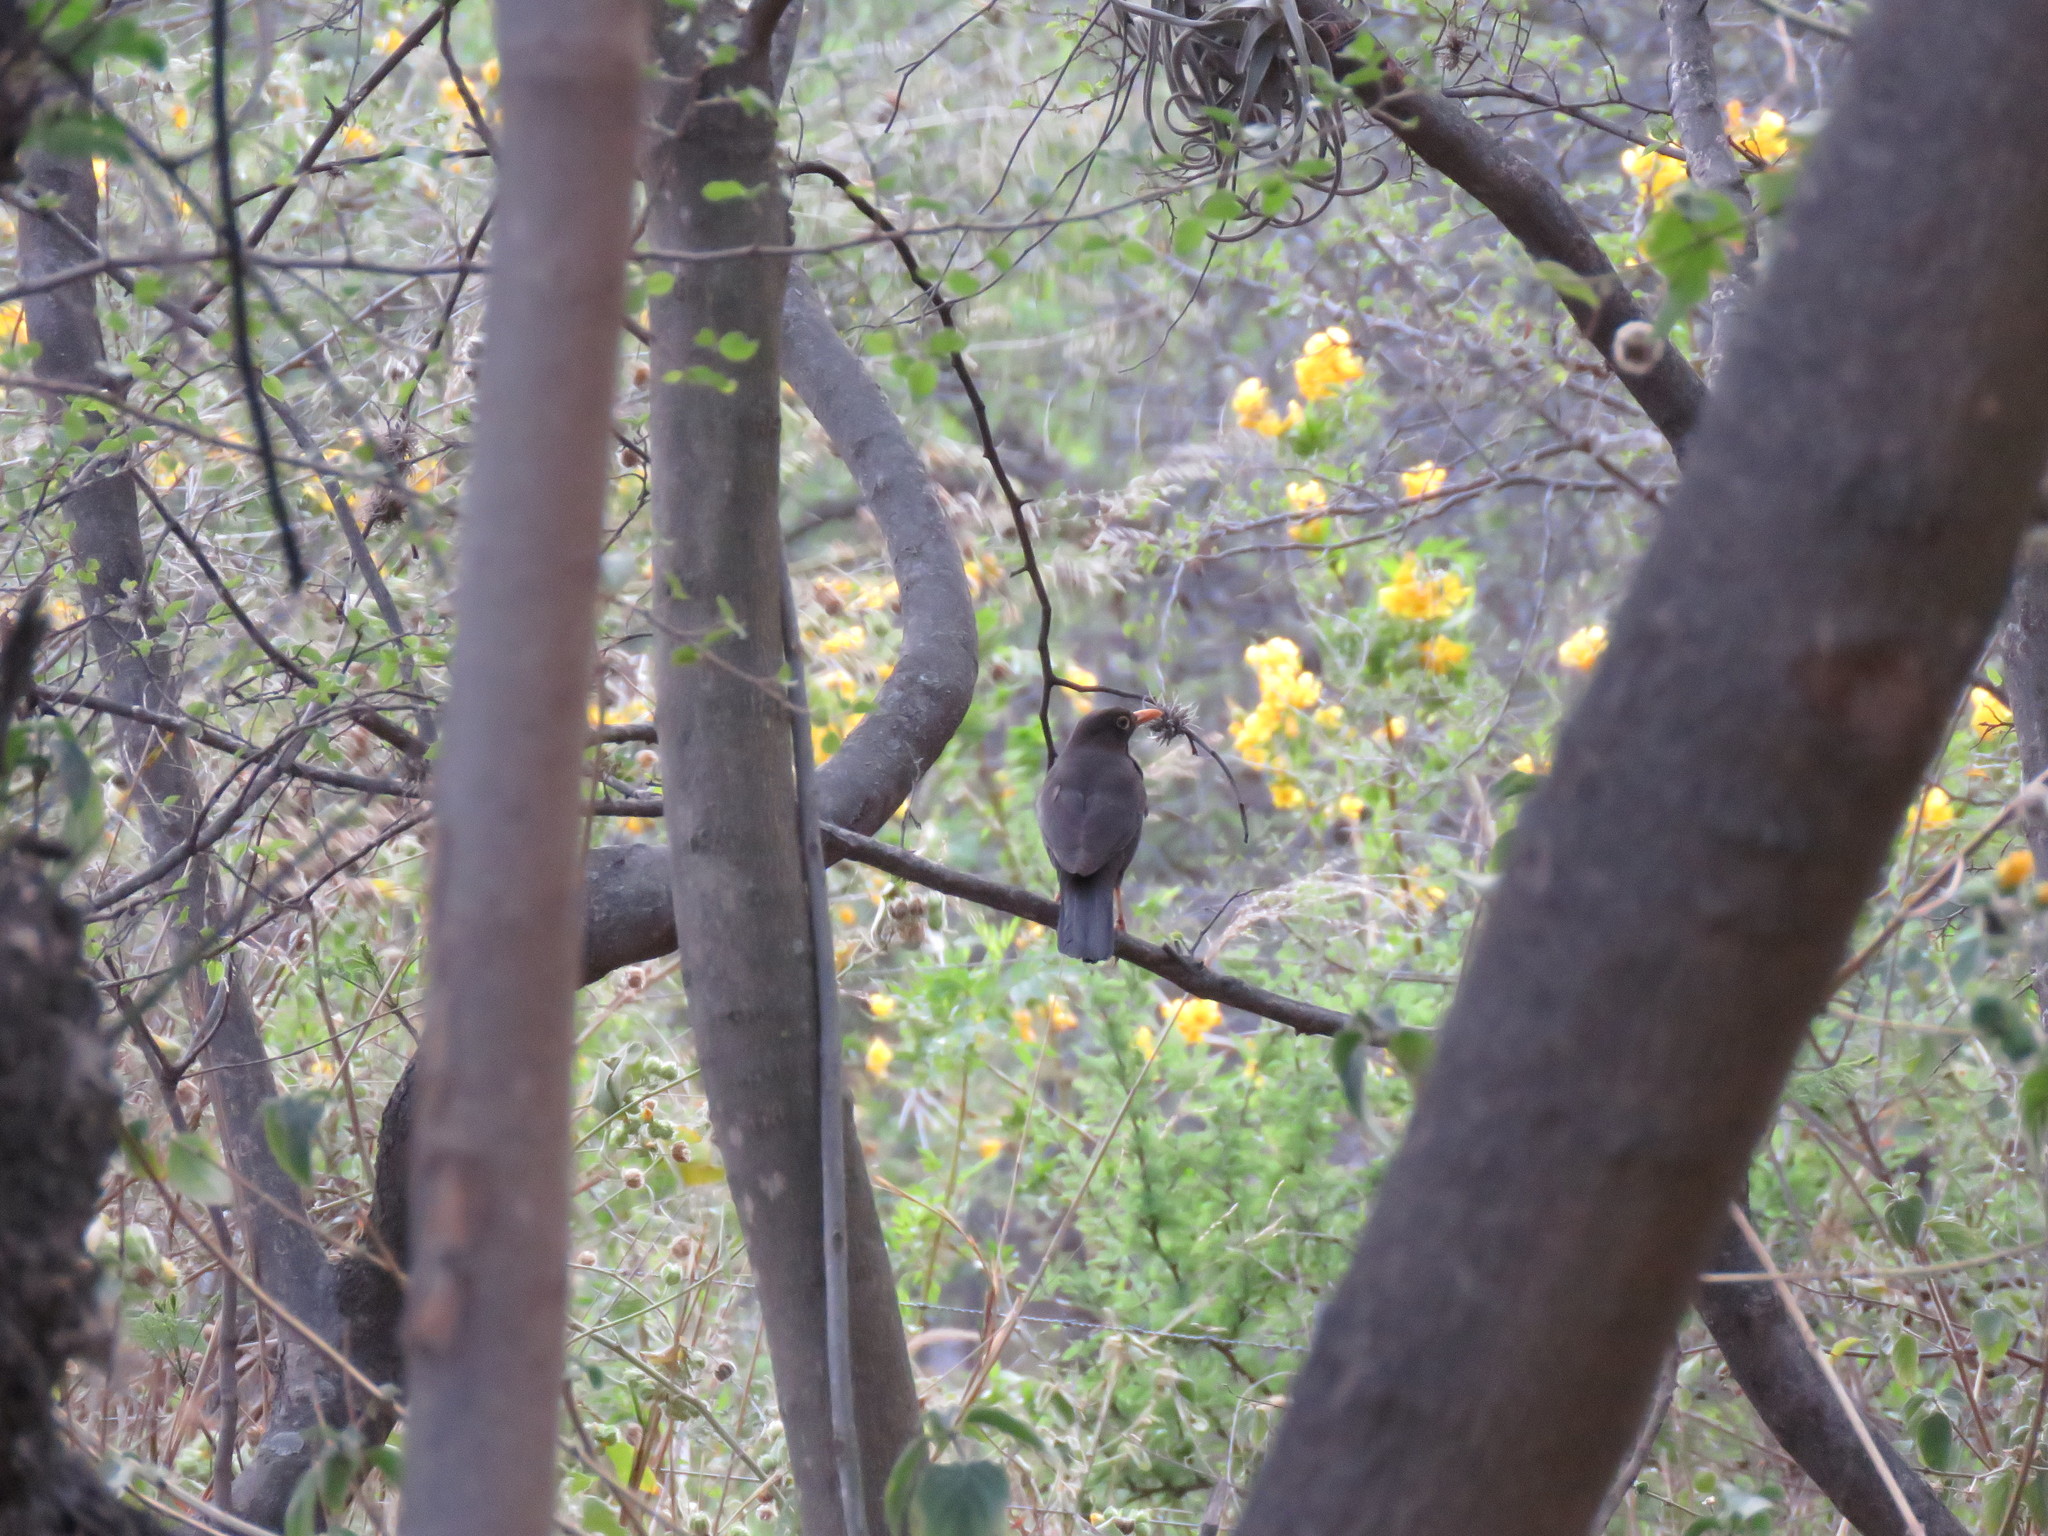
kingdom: Animalia
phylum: Chordata
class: Aves
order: Passeriformes
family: Turdidae
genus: Turdus
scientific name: Turdus chiguanco
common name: Chiguanco thrush
